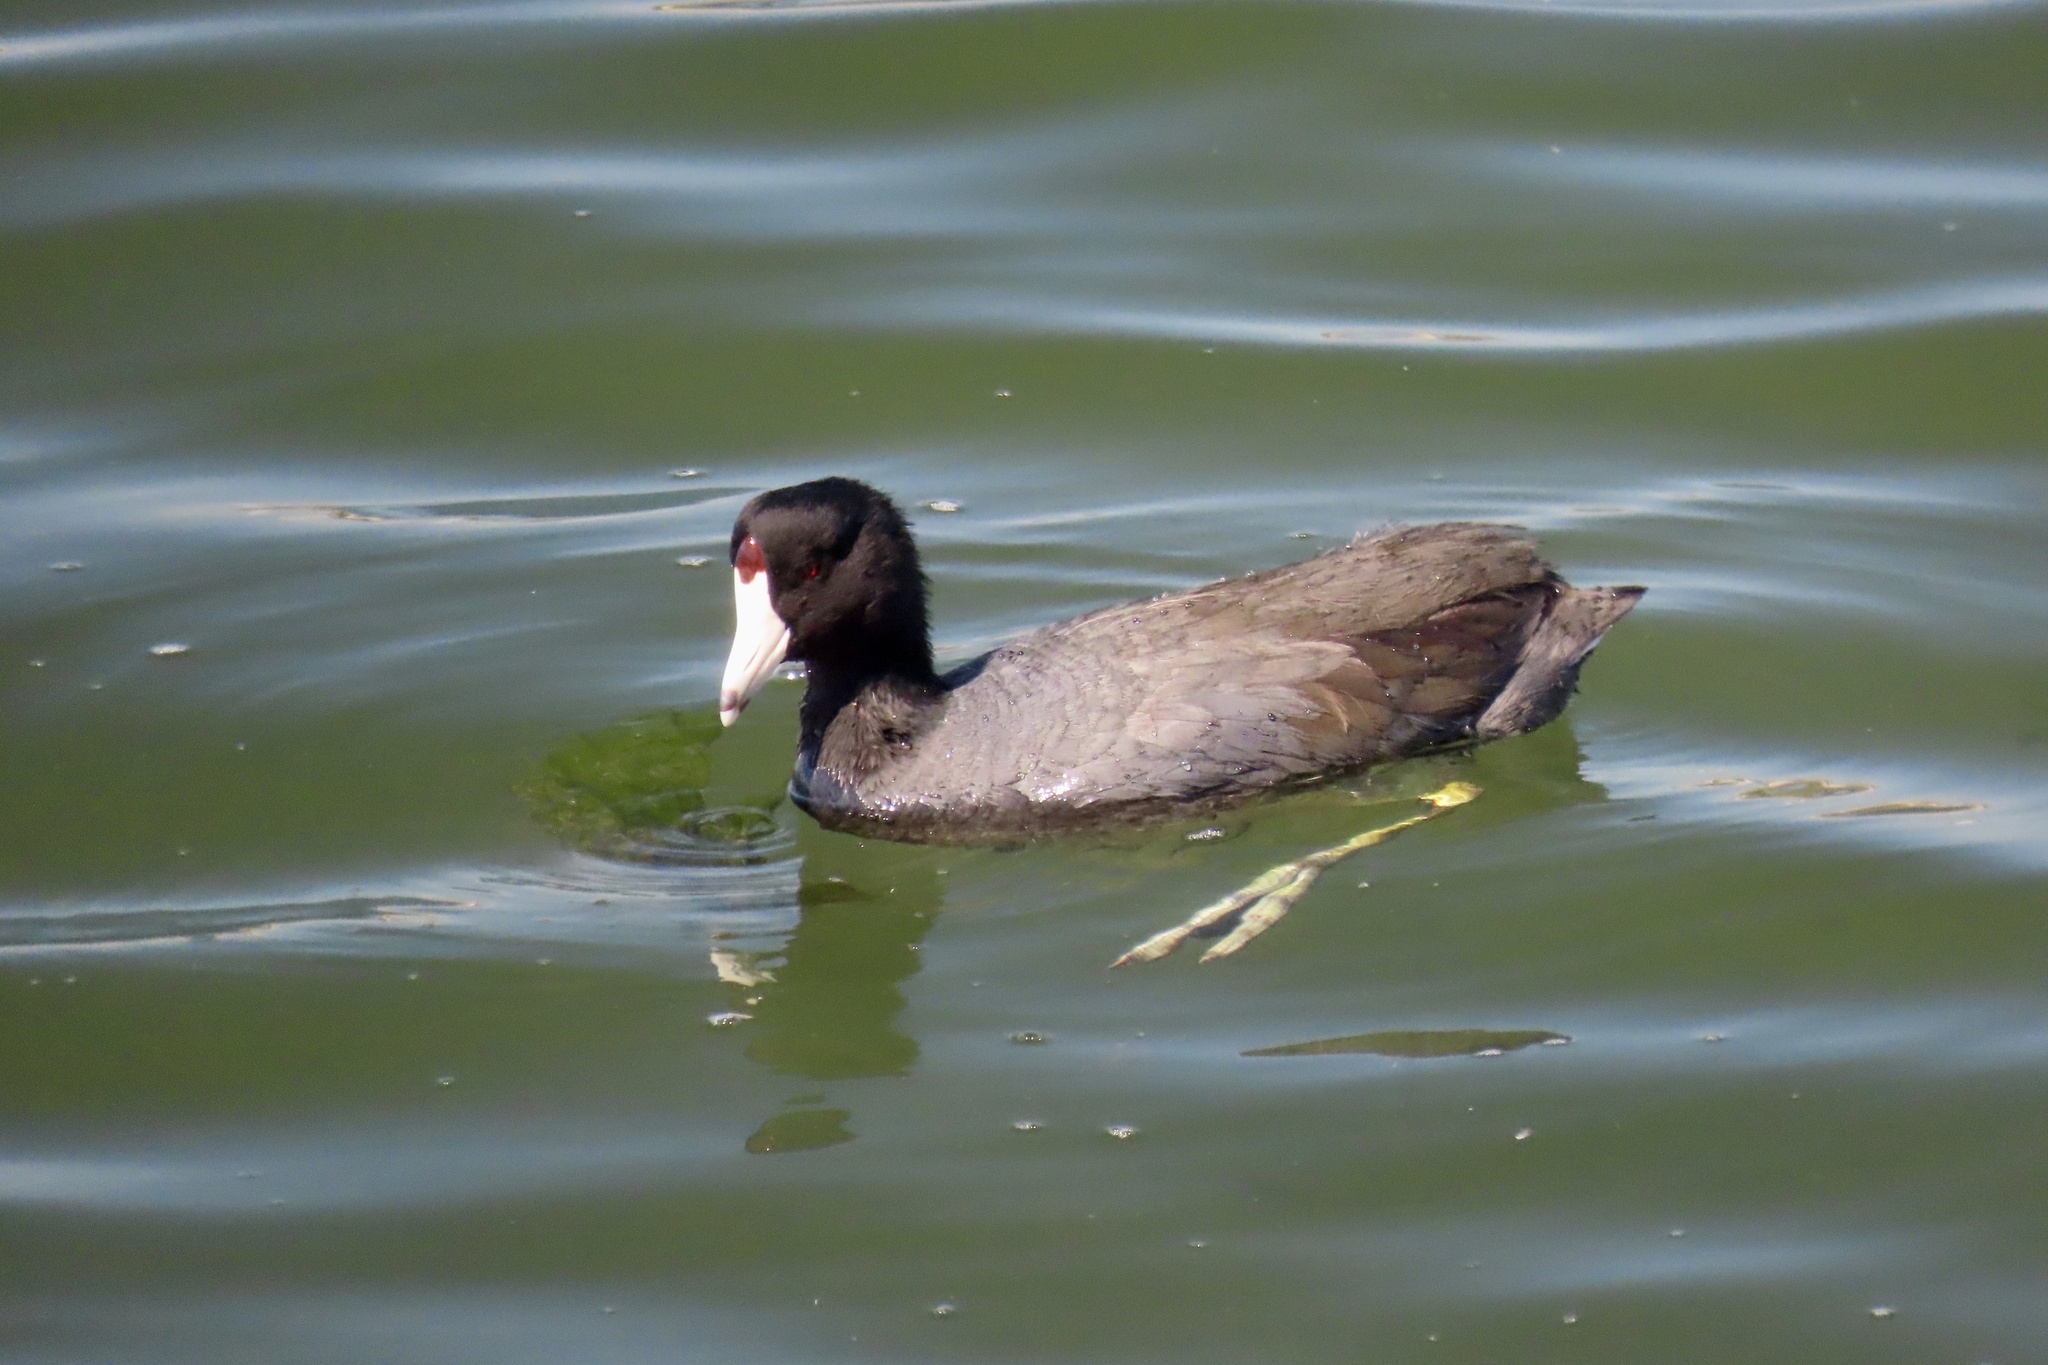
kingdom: Animalia
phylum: Chordata
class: Aves
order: Gruiformes
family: Rallidae
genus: Fulica
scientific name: Fulica americana
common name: American coot
